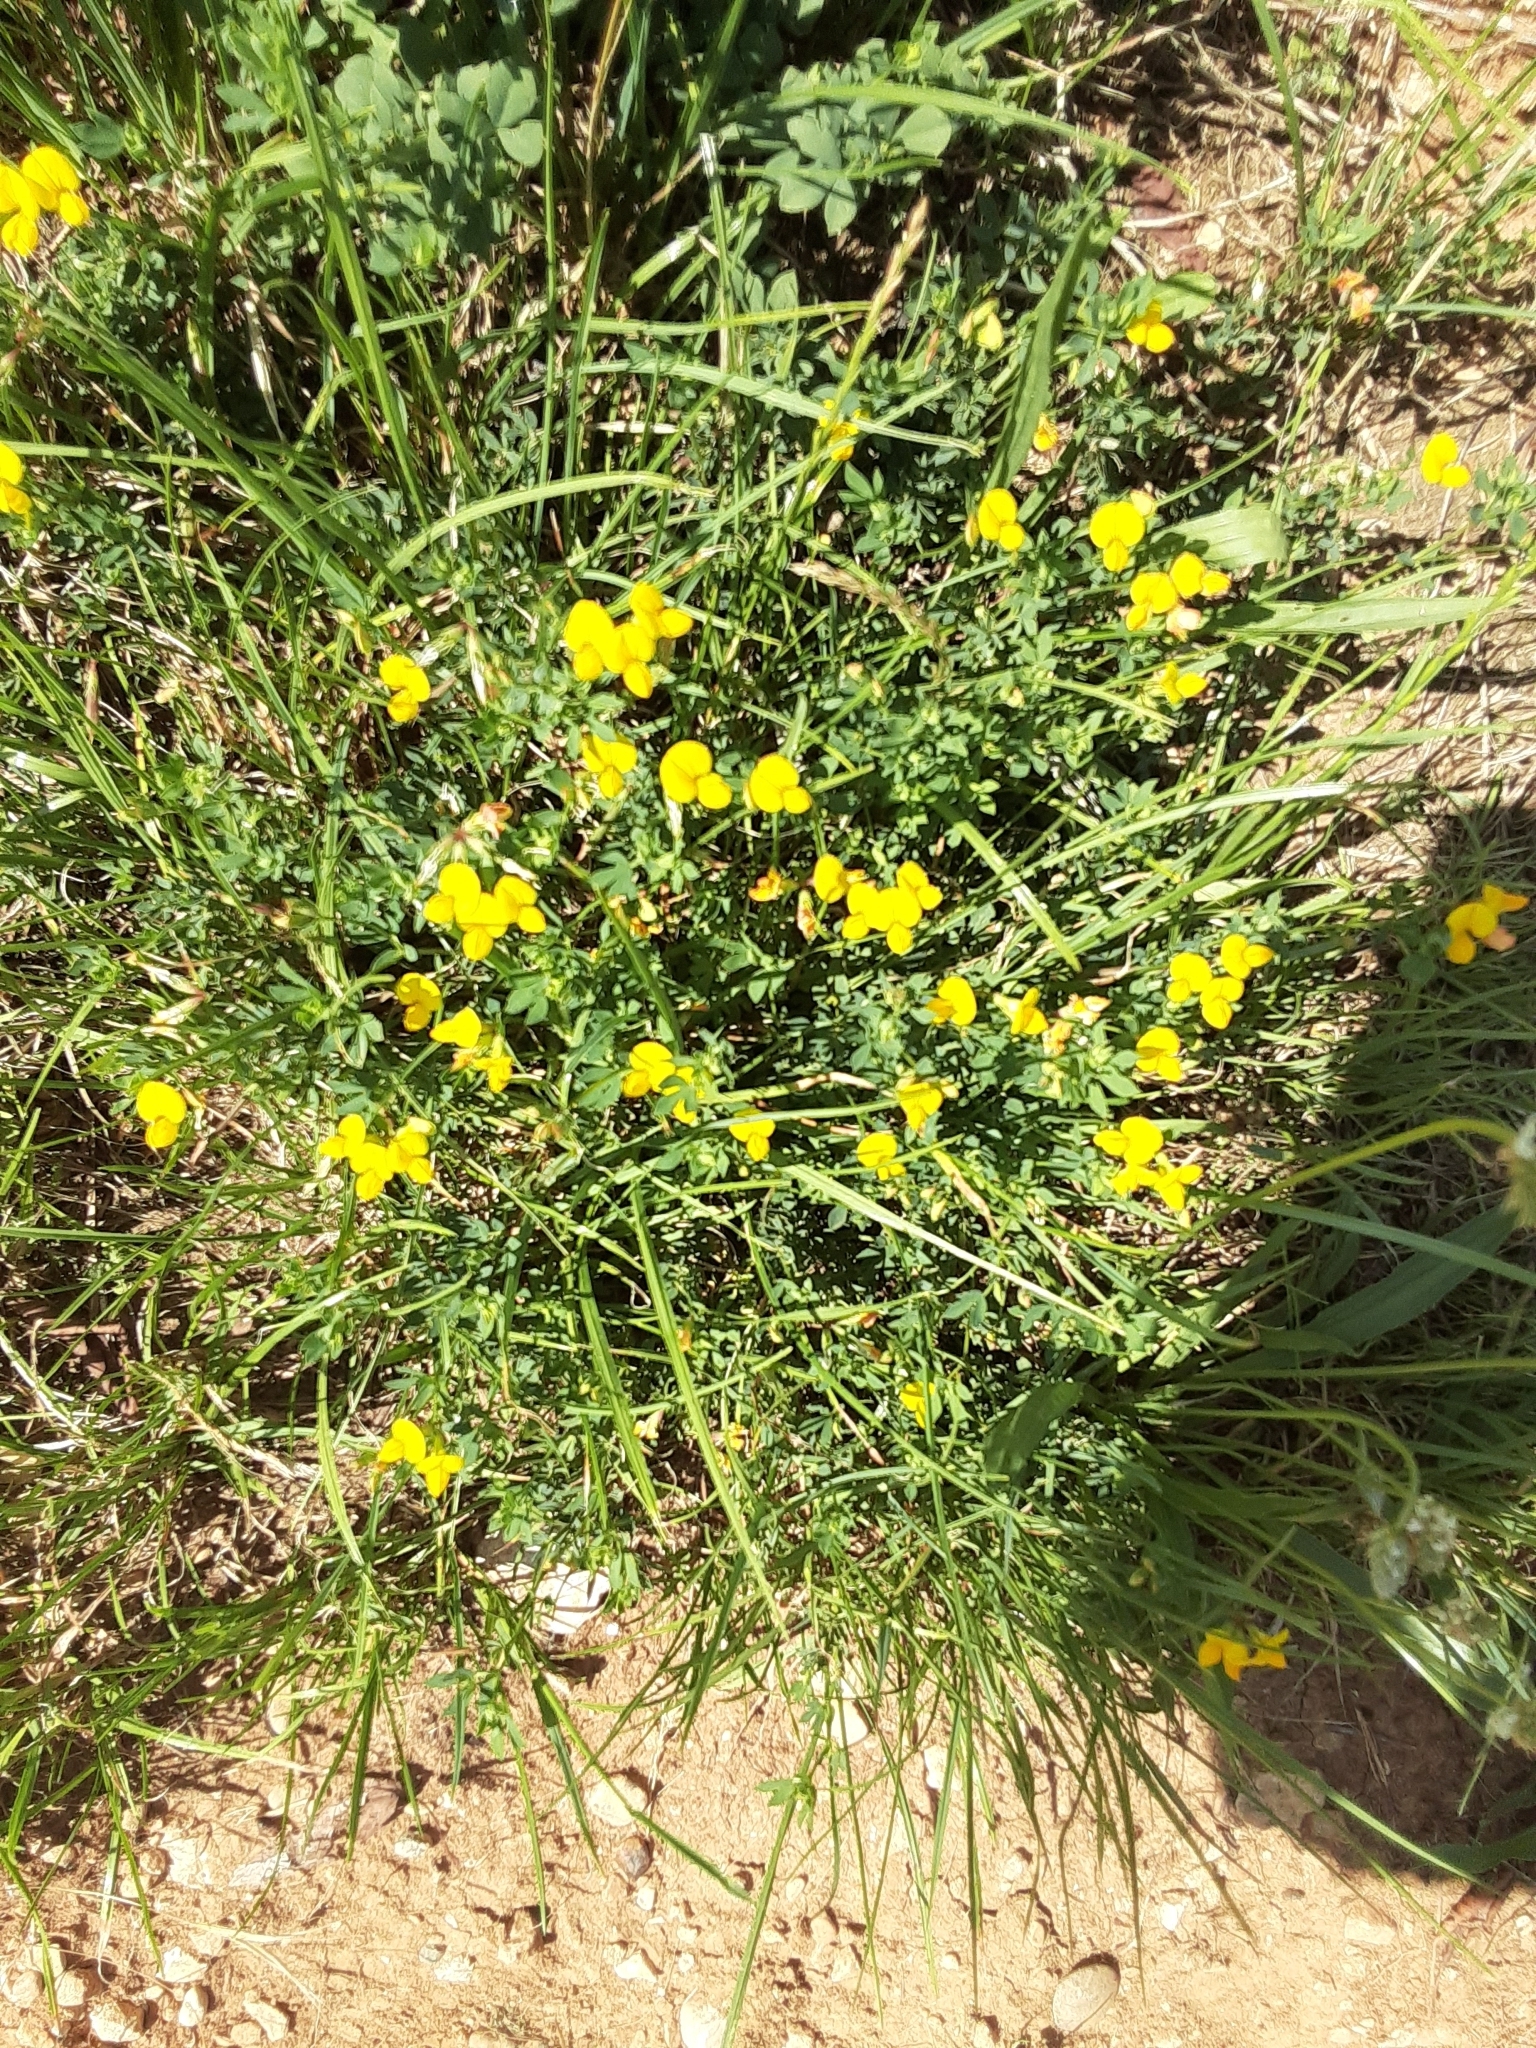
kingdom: Plantae
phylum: Tracheophyta
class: Magnoliopsida
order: Fabales
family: Fabaceae
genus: Lotus
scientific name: Lotus corniculatus
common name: Common bird's-foot-trefoil
